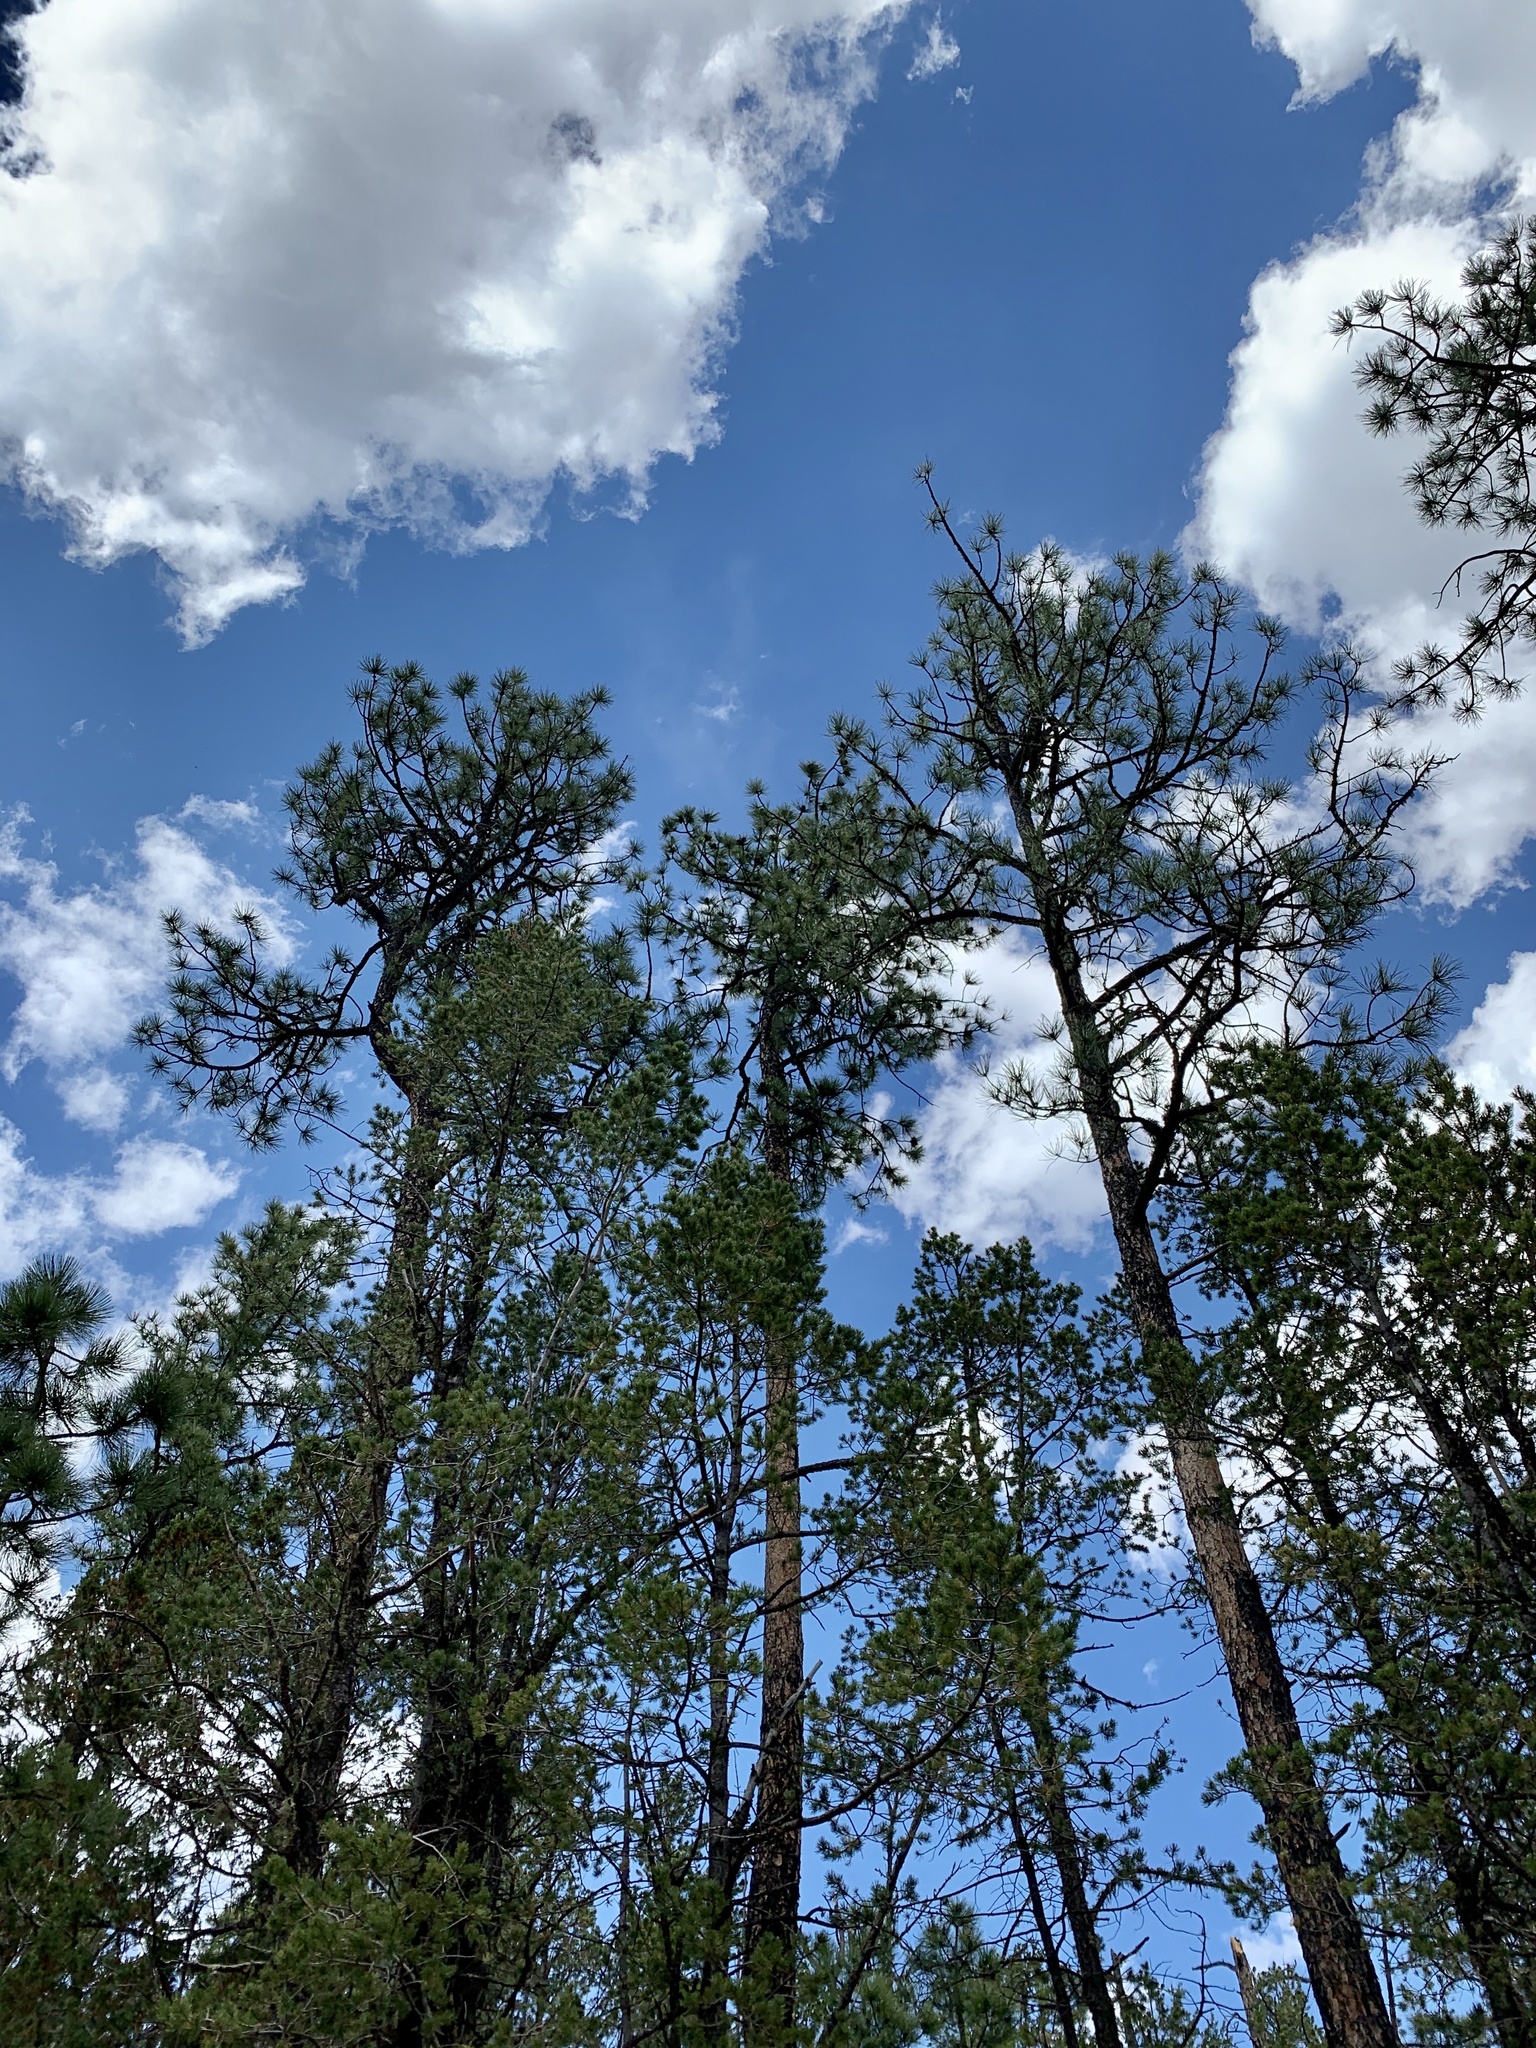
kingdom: Plantae
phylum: Tracheophyta
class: Pinopsida
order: Pinales
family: Pinaceae
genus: Pinus
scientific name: Pinus ponderosa
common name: Western yellow-pine
